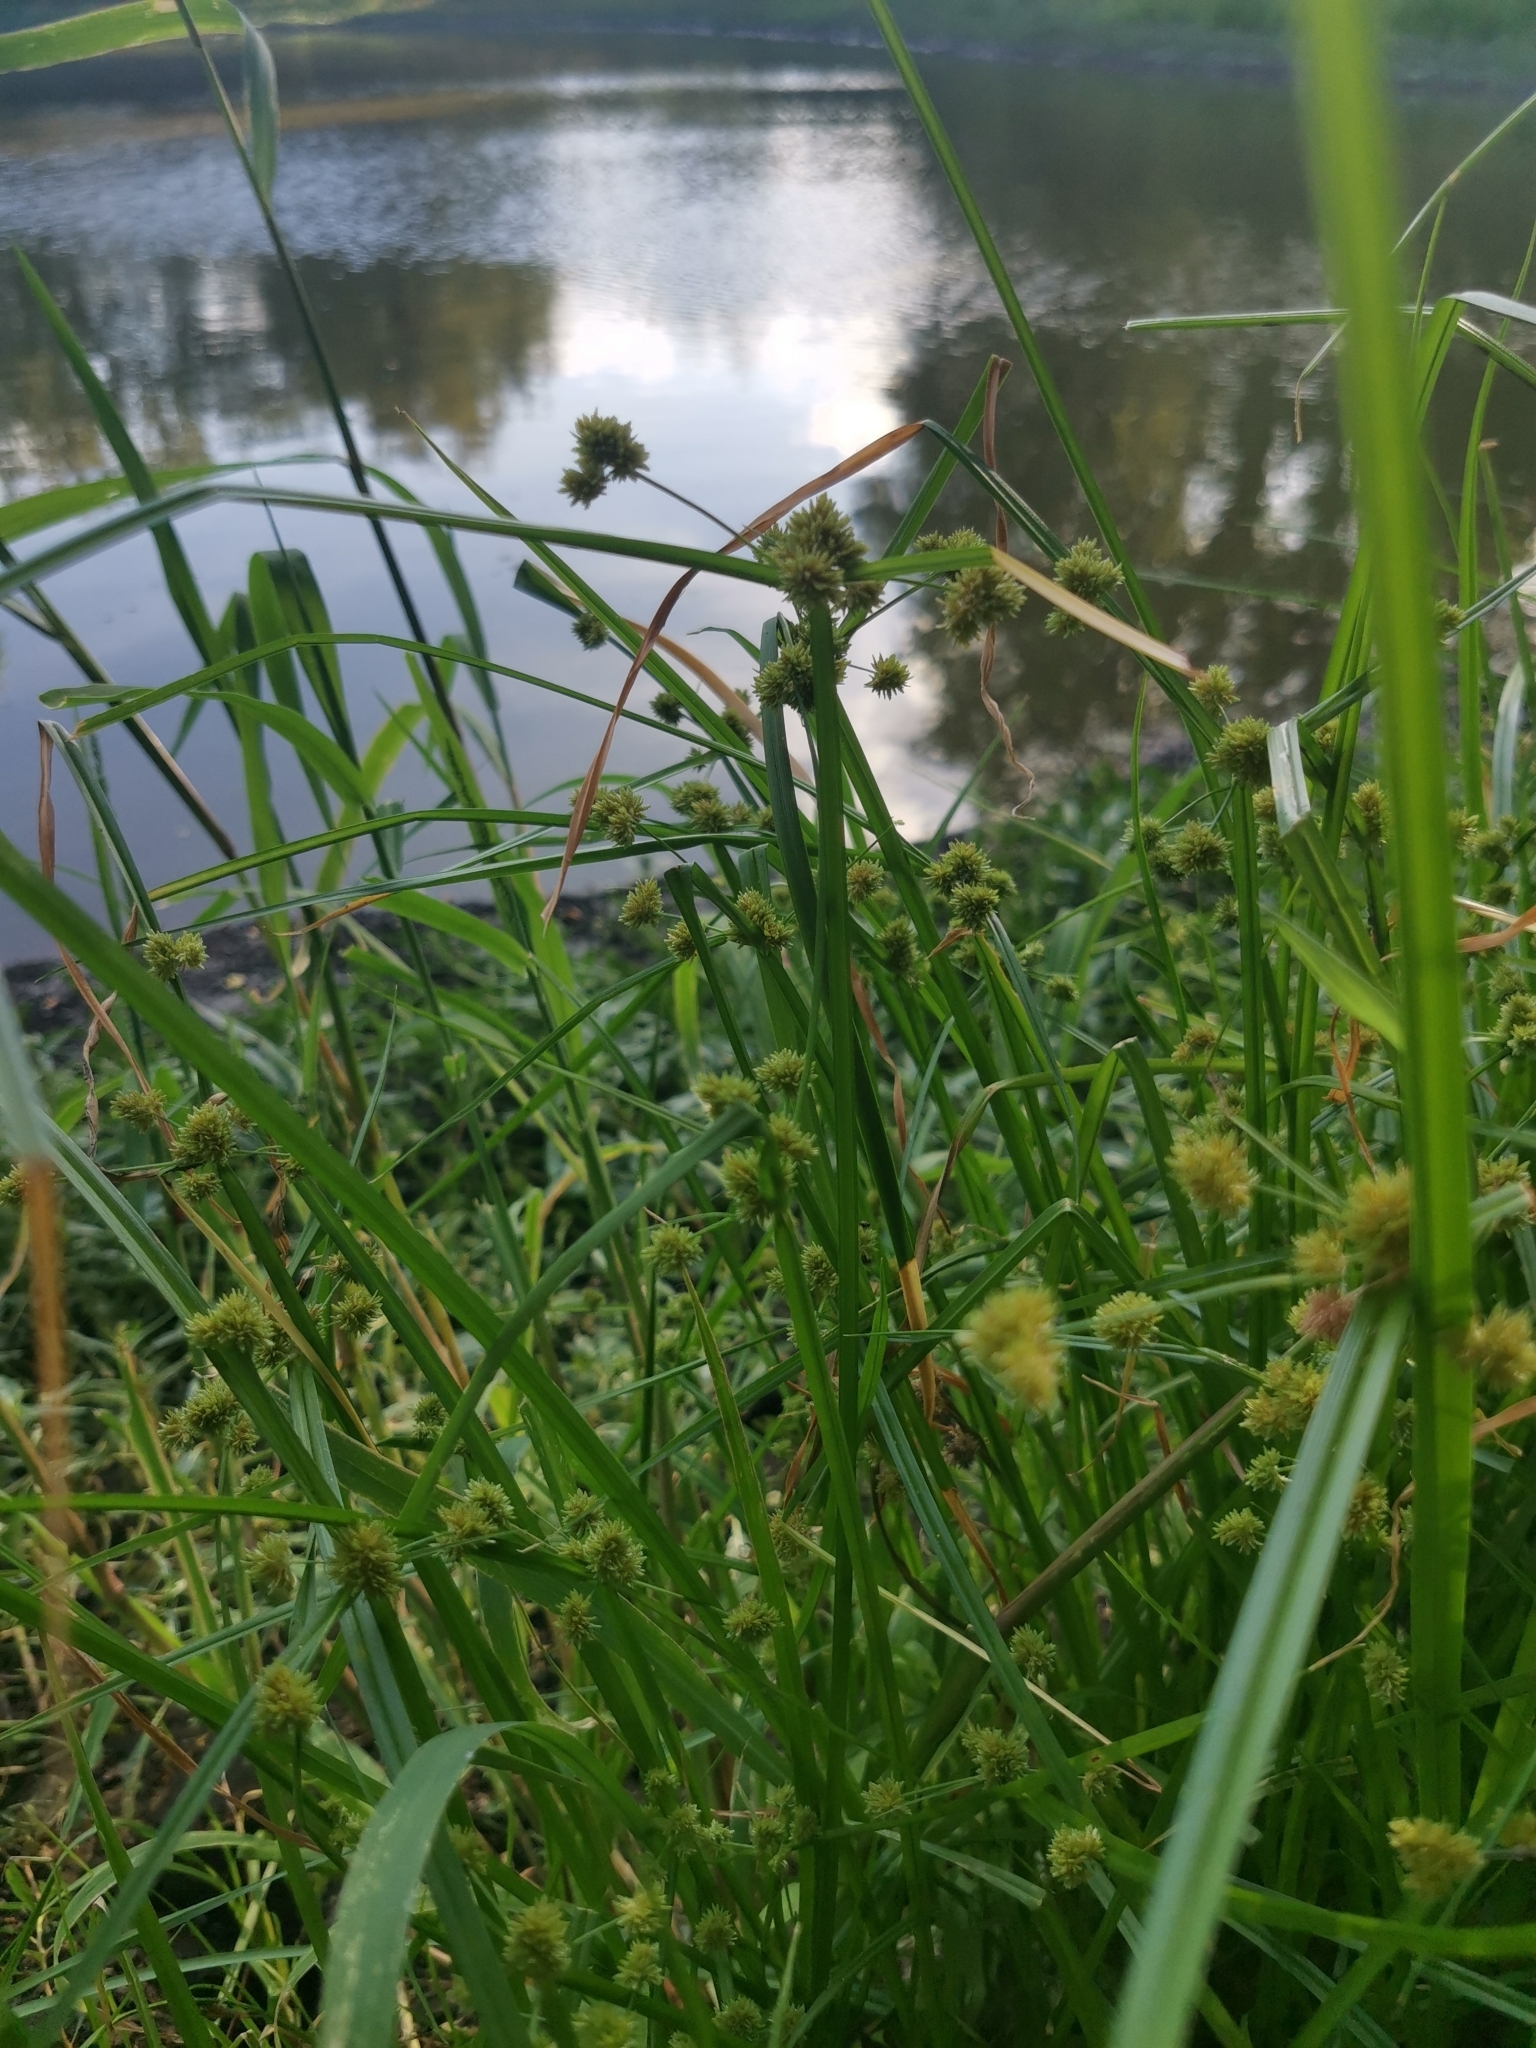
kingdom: Plantae
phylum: Tracheophyta
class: Liliopsida
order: Poales
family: Cyperaceae
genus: Cyperus
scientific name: Cyperus difformis
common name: Variable flatsedge
